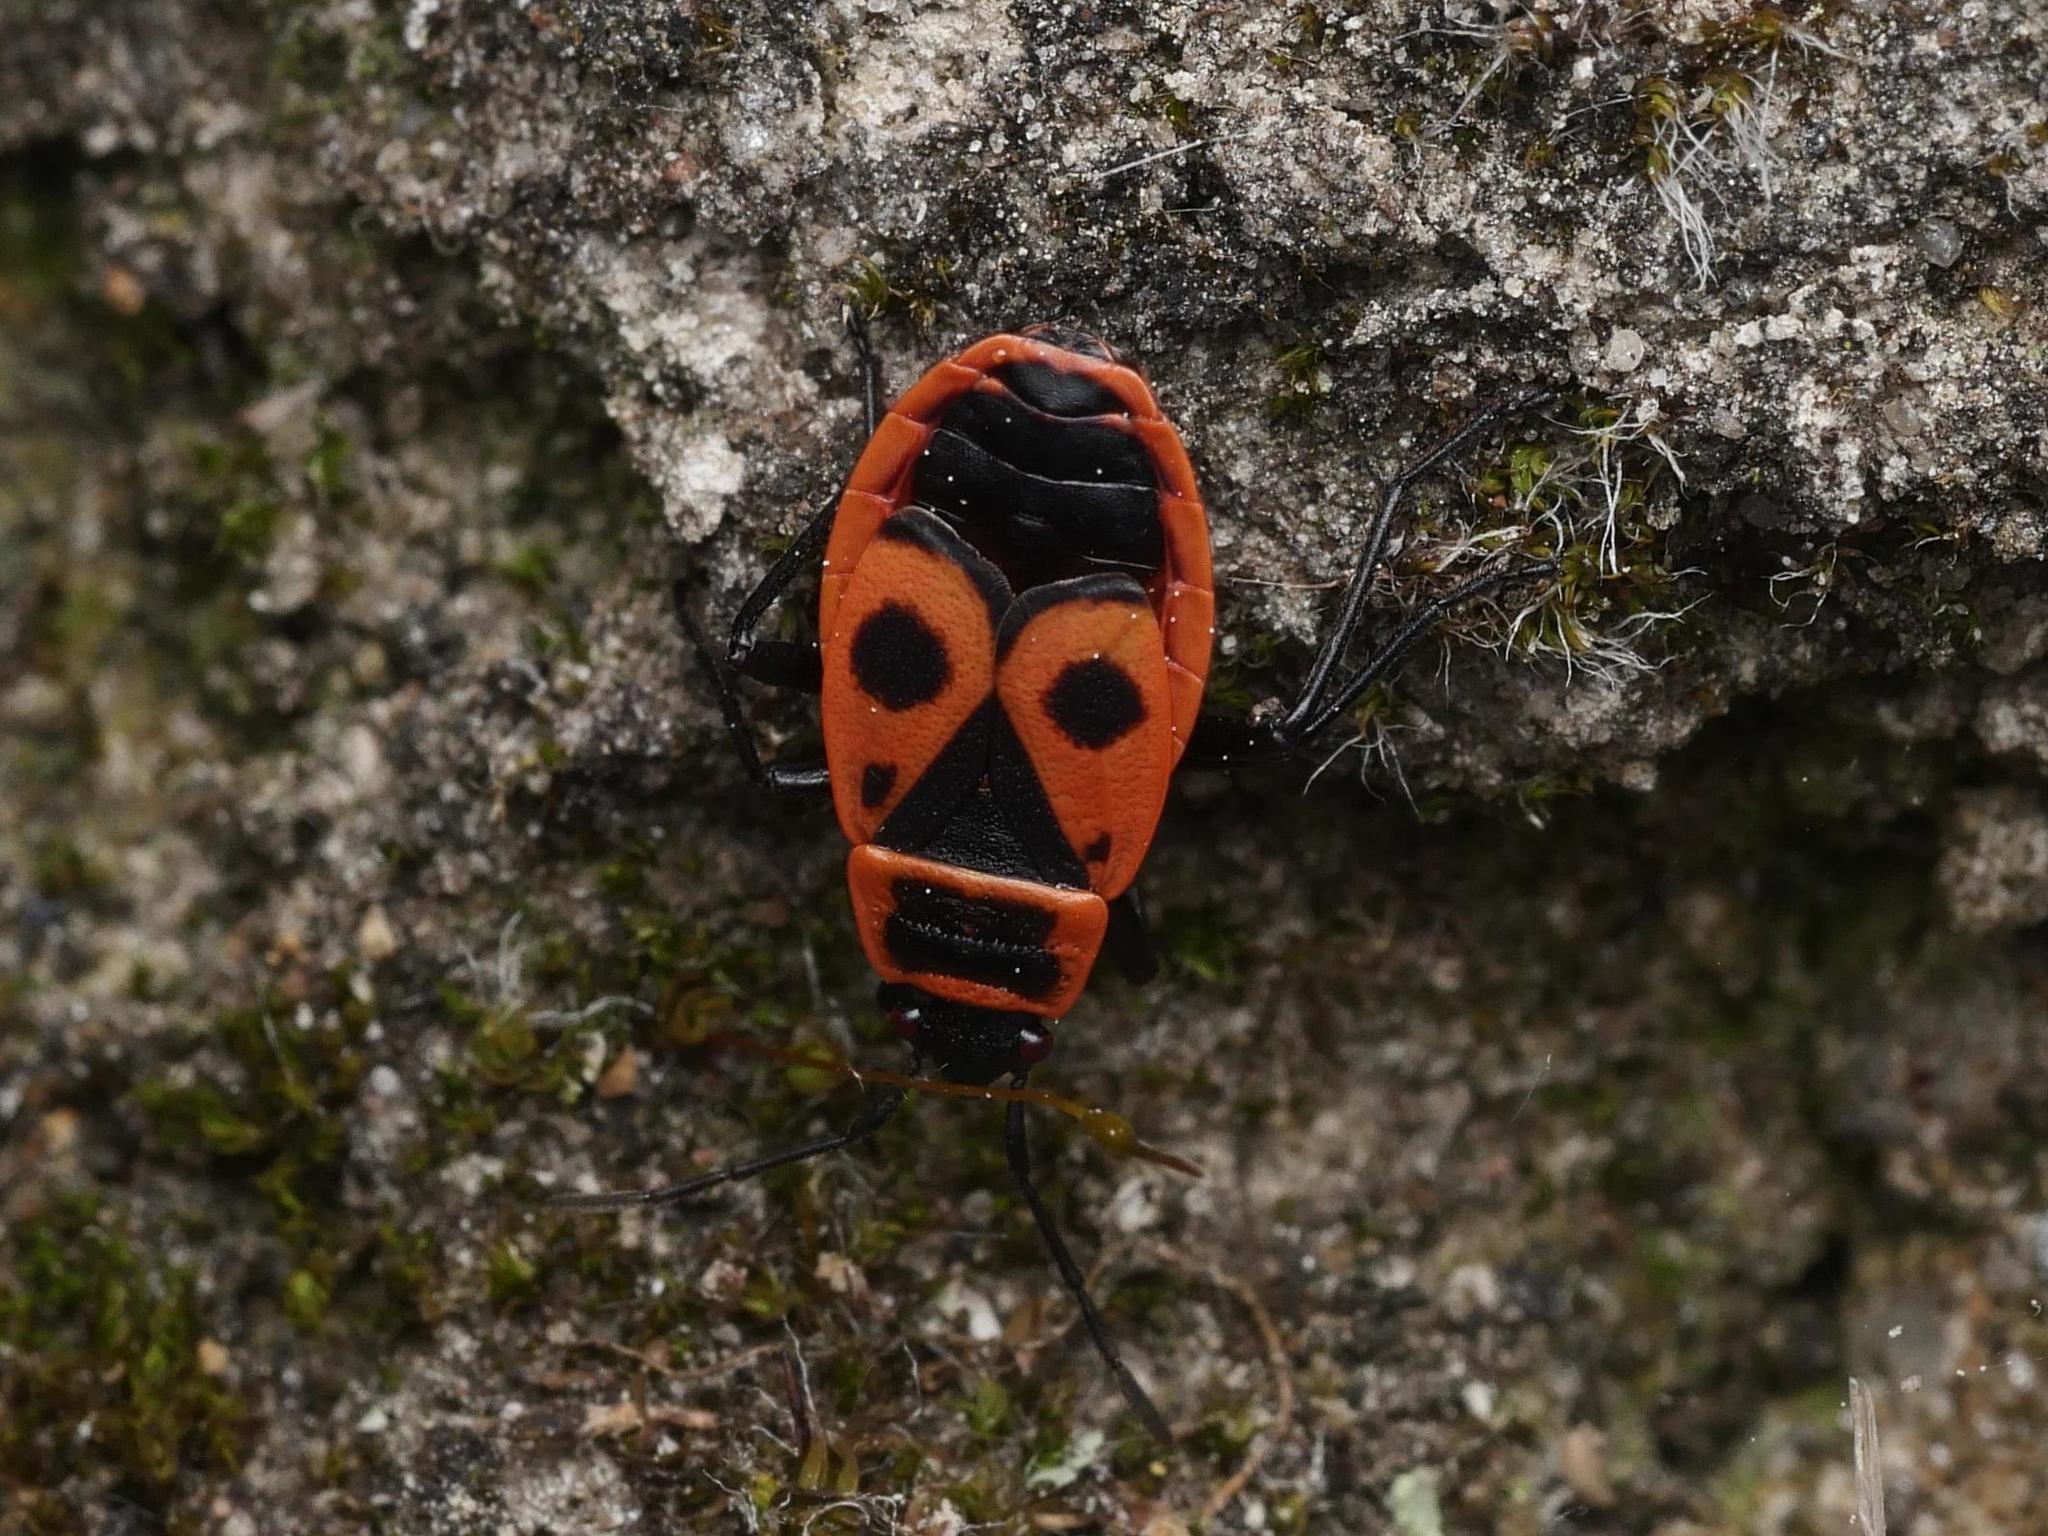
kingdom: Animalia
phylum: Arthropoda
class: Insecta
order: Hemiptera
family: Pyrrhocoridae
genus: Pyrrhocoris
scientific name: Pyrrhocoris apterus
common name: Firebug
